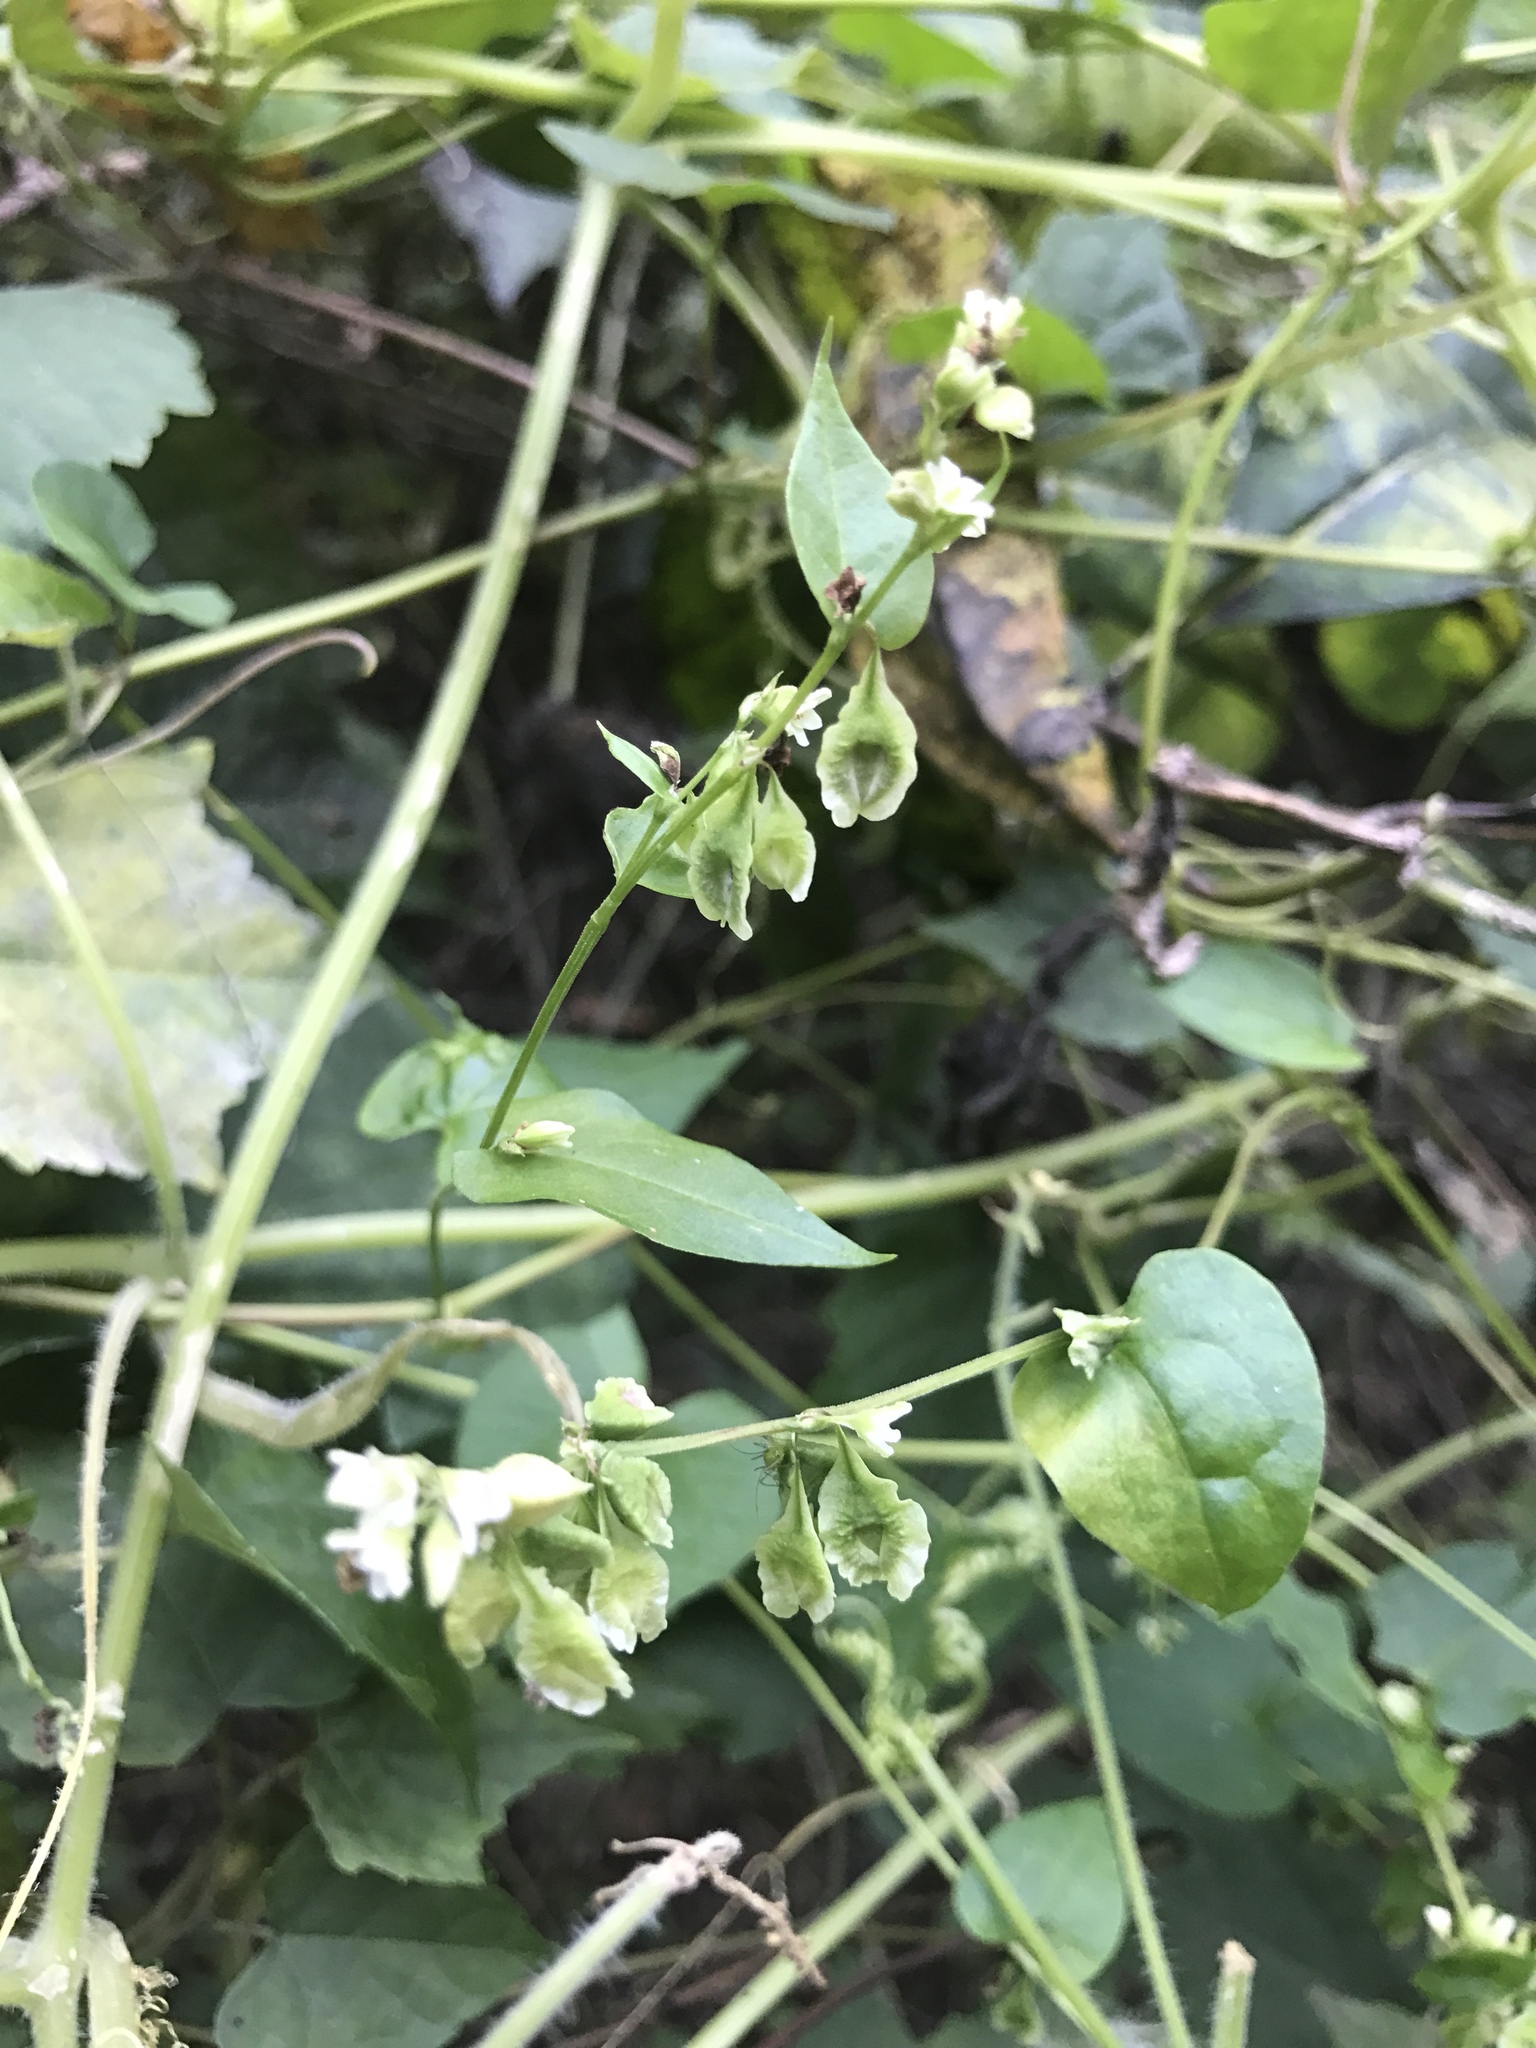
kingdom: Plantae
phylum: Tracheophyta
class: Magnoliopsida
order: Caryophyllales
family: Polygonaceae
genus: Fallopia
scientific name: Fallopia scandens
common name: Climbing false buckwheat
